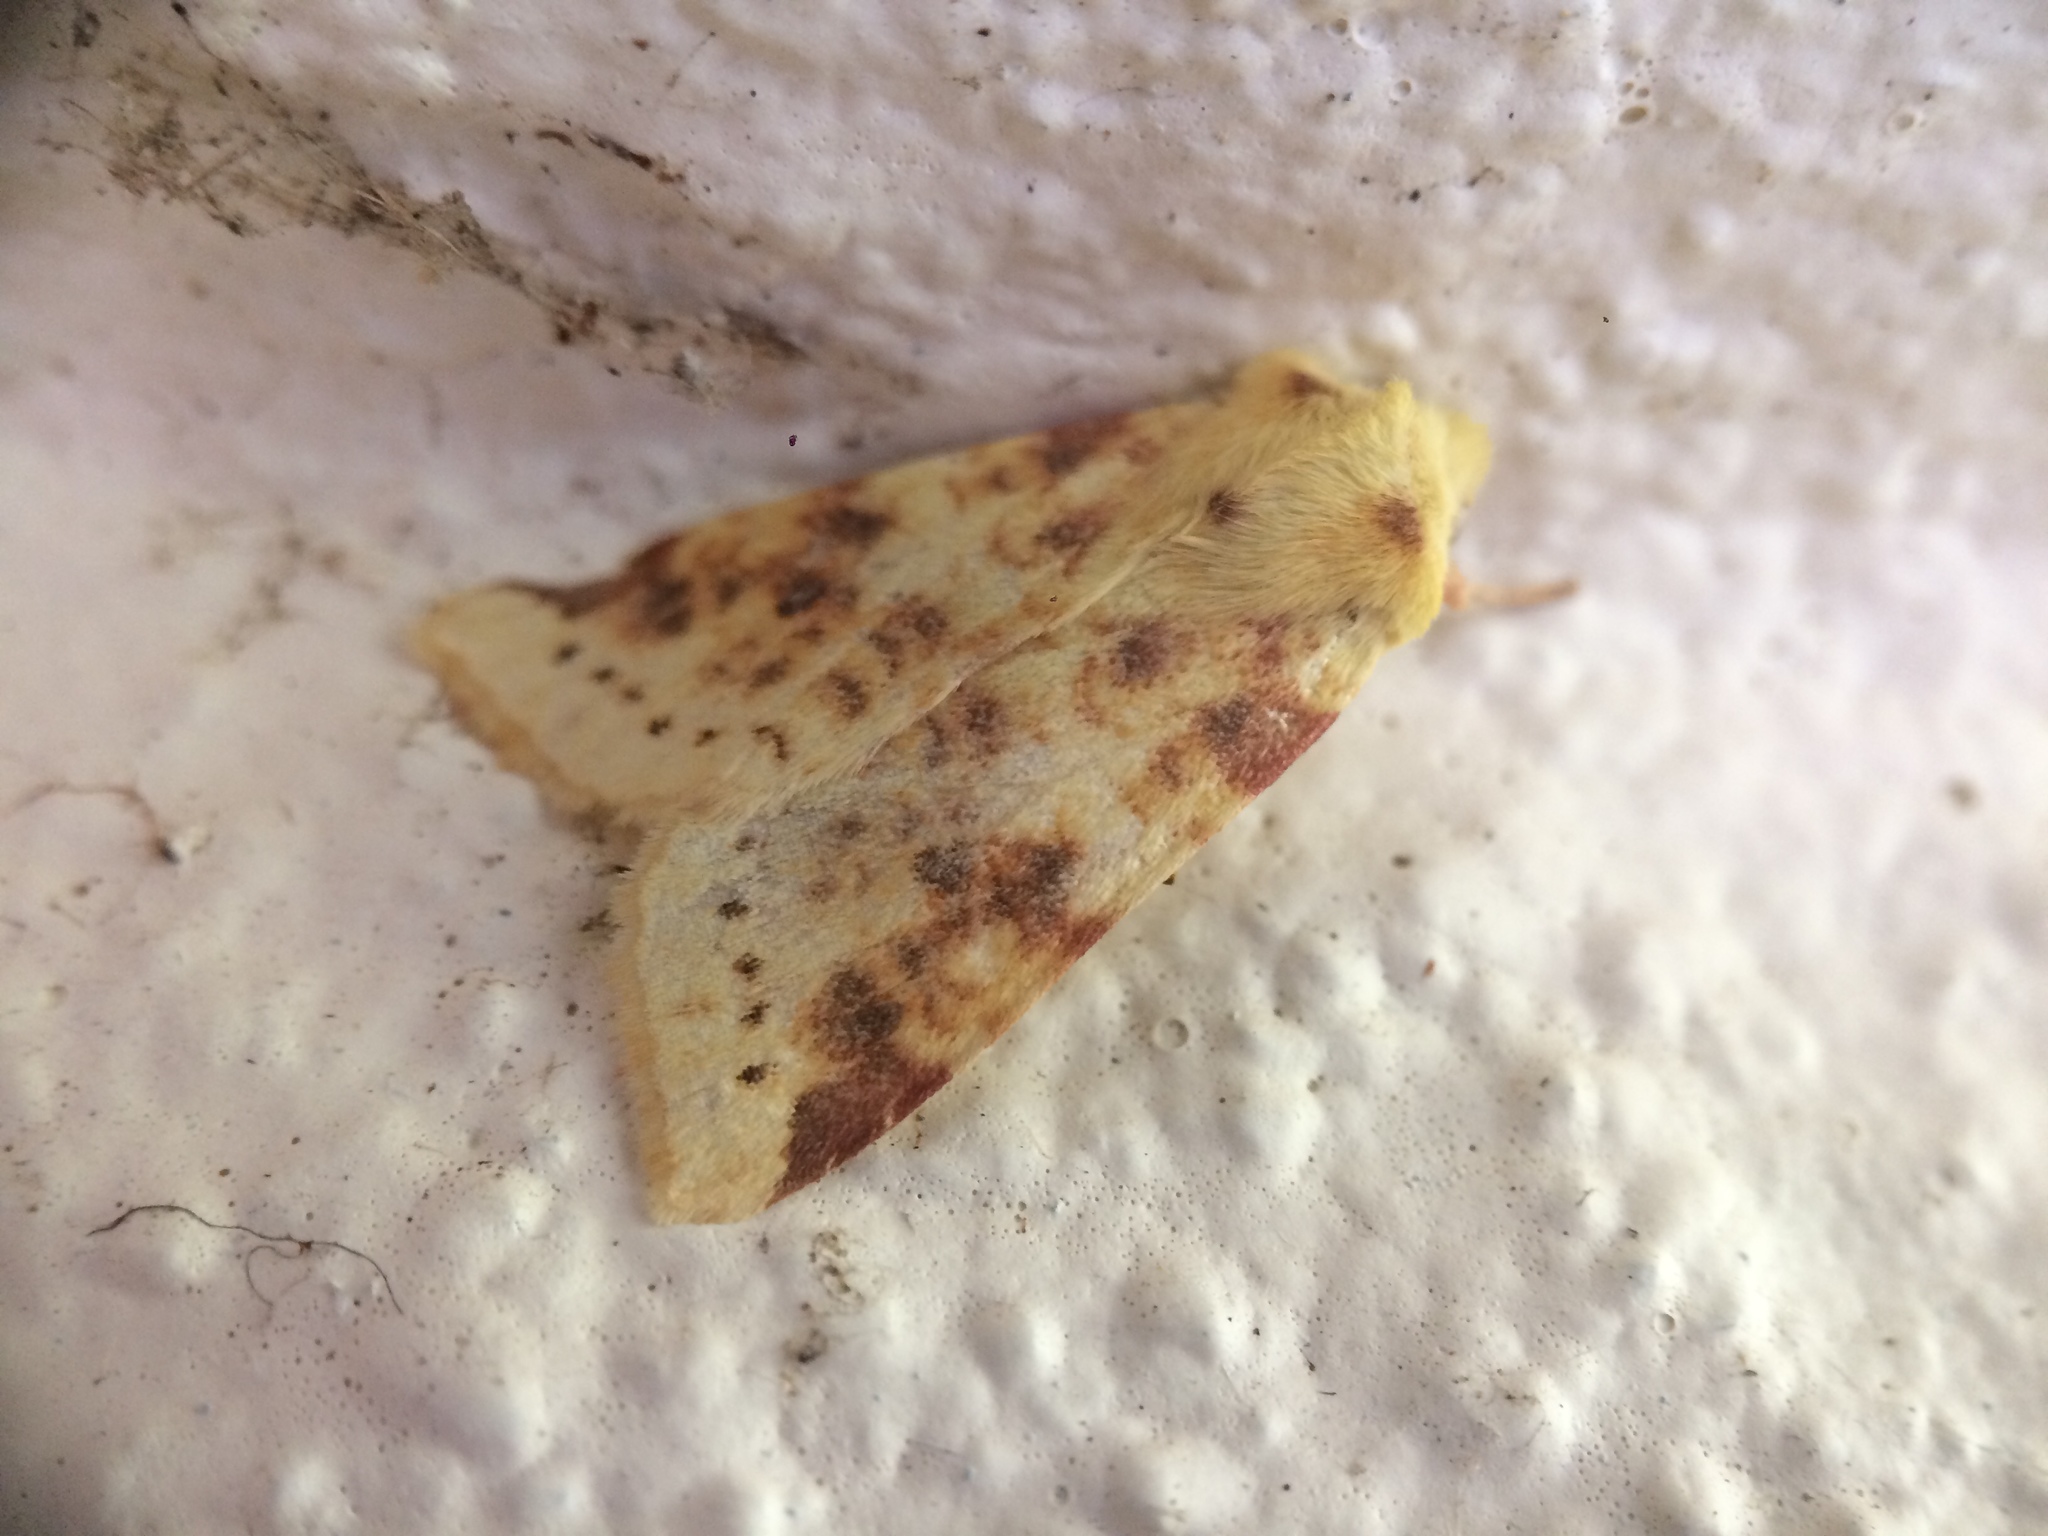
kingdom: Animalia
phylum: Arthropoda
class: Insecta
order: Lepidoptera
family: Noctuidae
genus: Xanthia
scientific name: Xanthia icteritia
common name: The sallow
